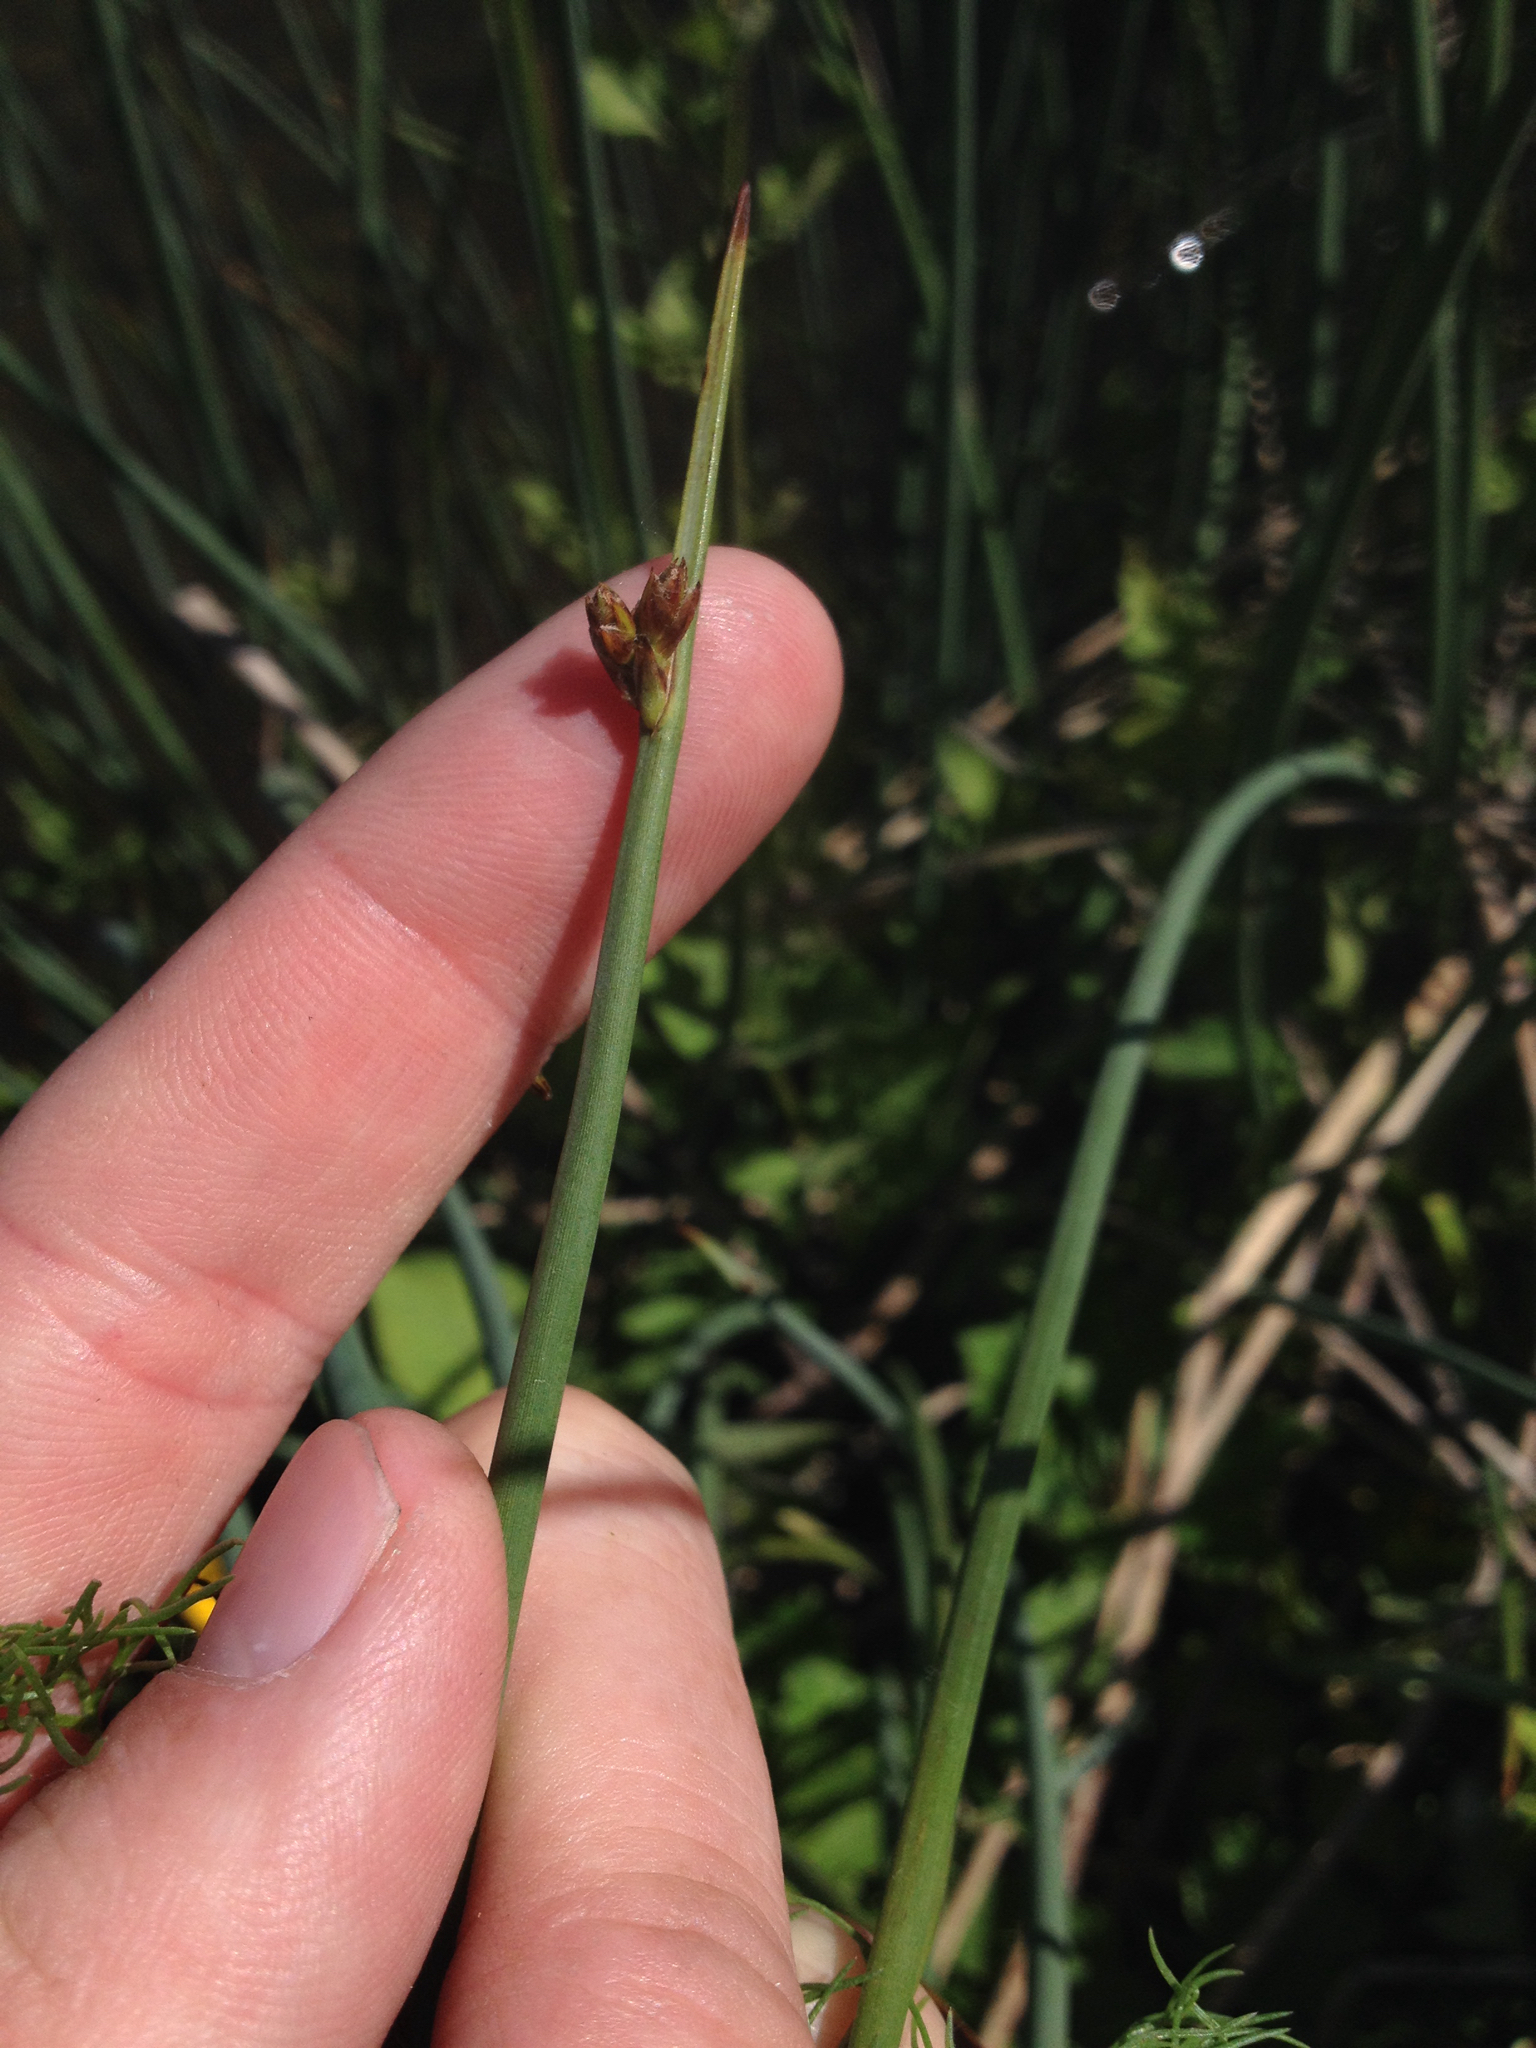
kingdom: Plantae
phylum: Tracheophyta
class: Liliopsida
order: Poales
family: Cyperaceae
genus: Schoenoplectus
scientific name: Schoenoplectus pungens
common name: Sharp club-rush
